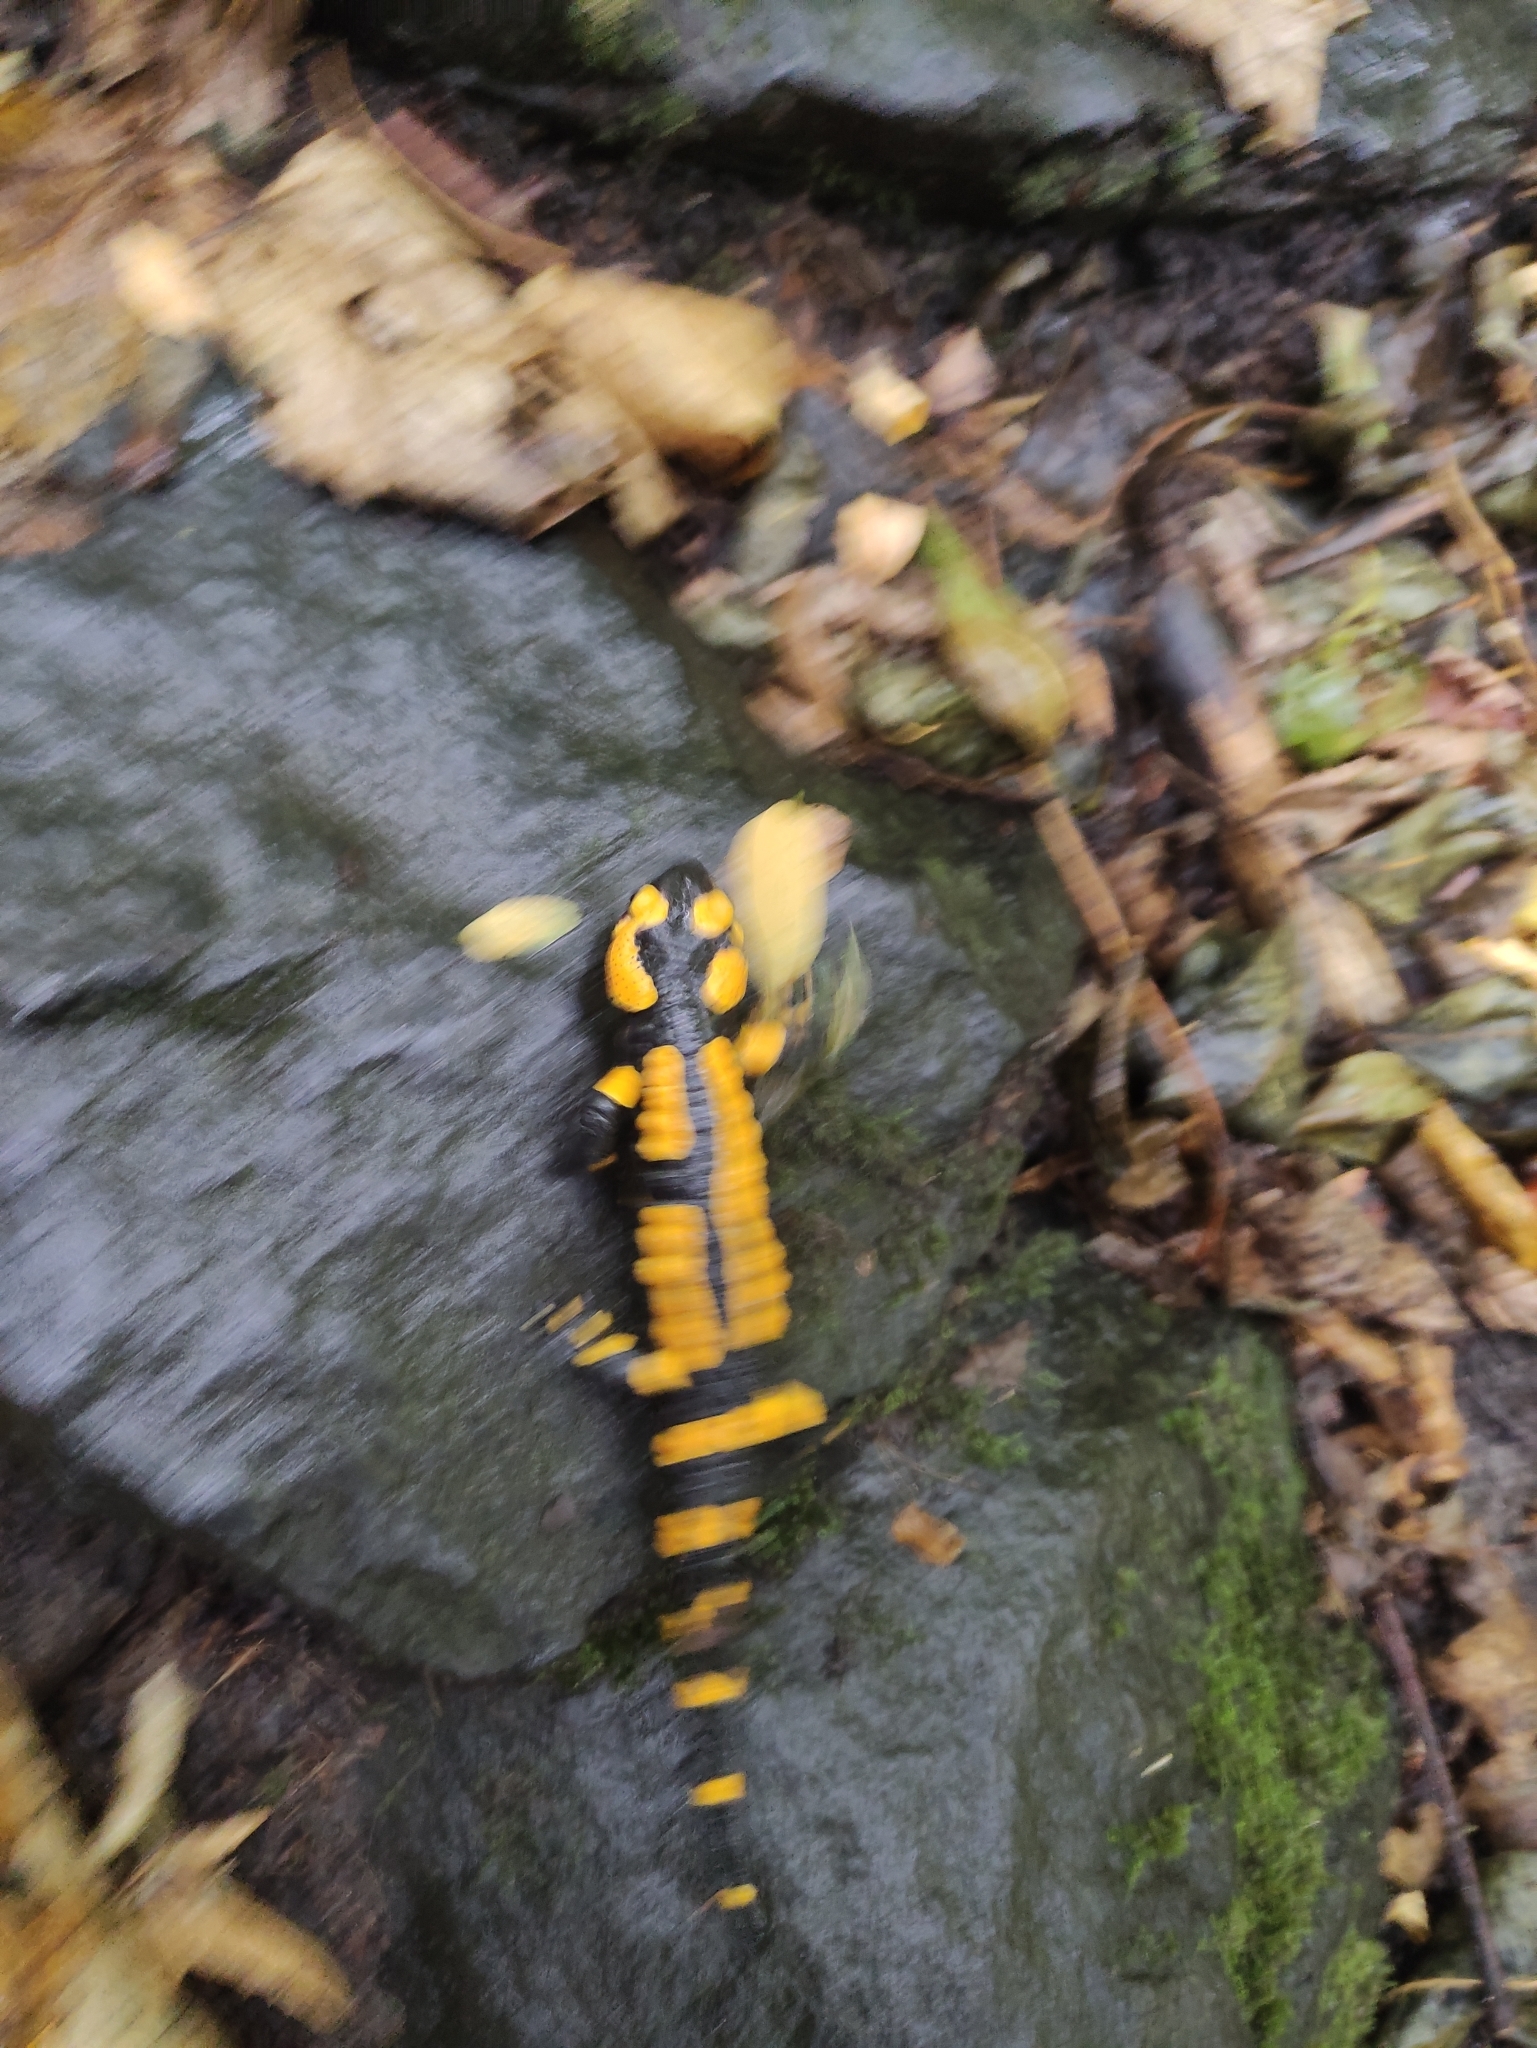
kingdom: Animalia
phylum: Chordata
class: Amphibia
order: Caudata
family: Salamandridae
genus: Salamandra
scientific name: Salamandra salamandra
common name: Fire salamander
